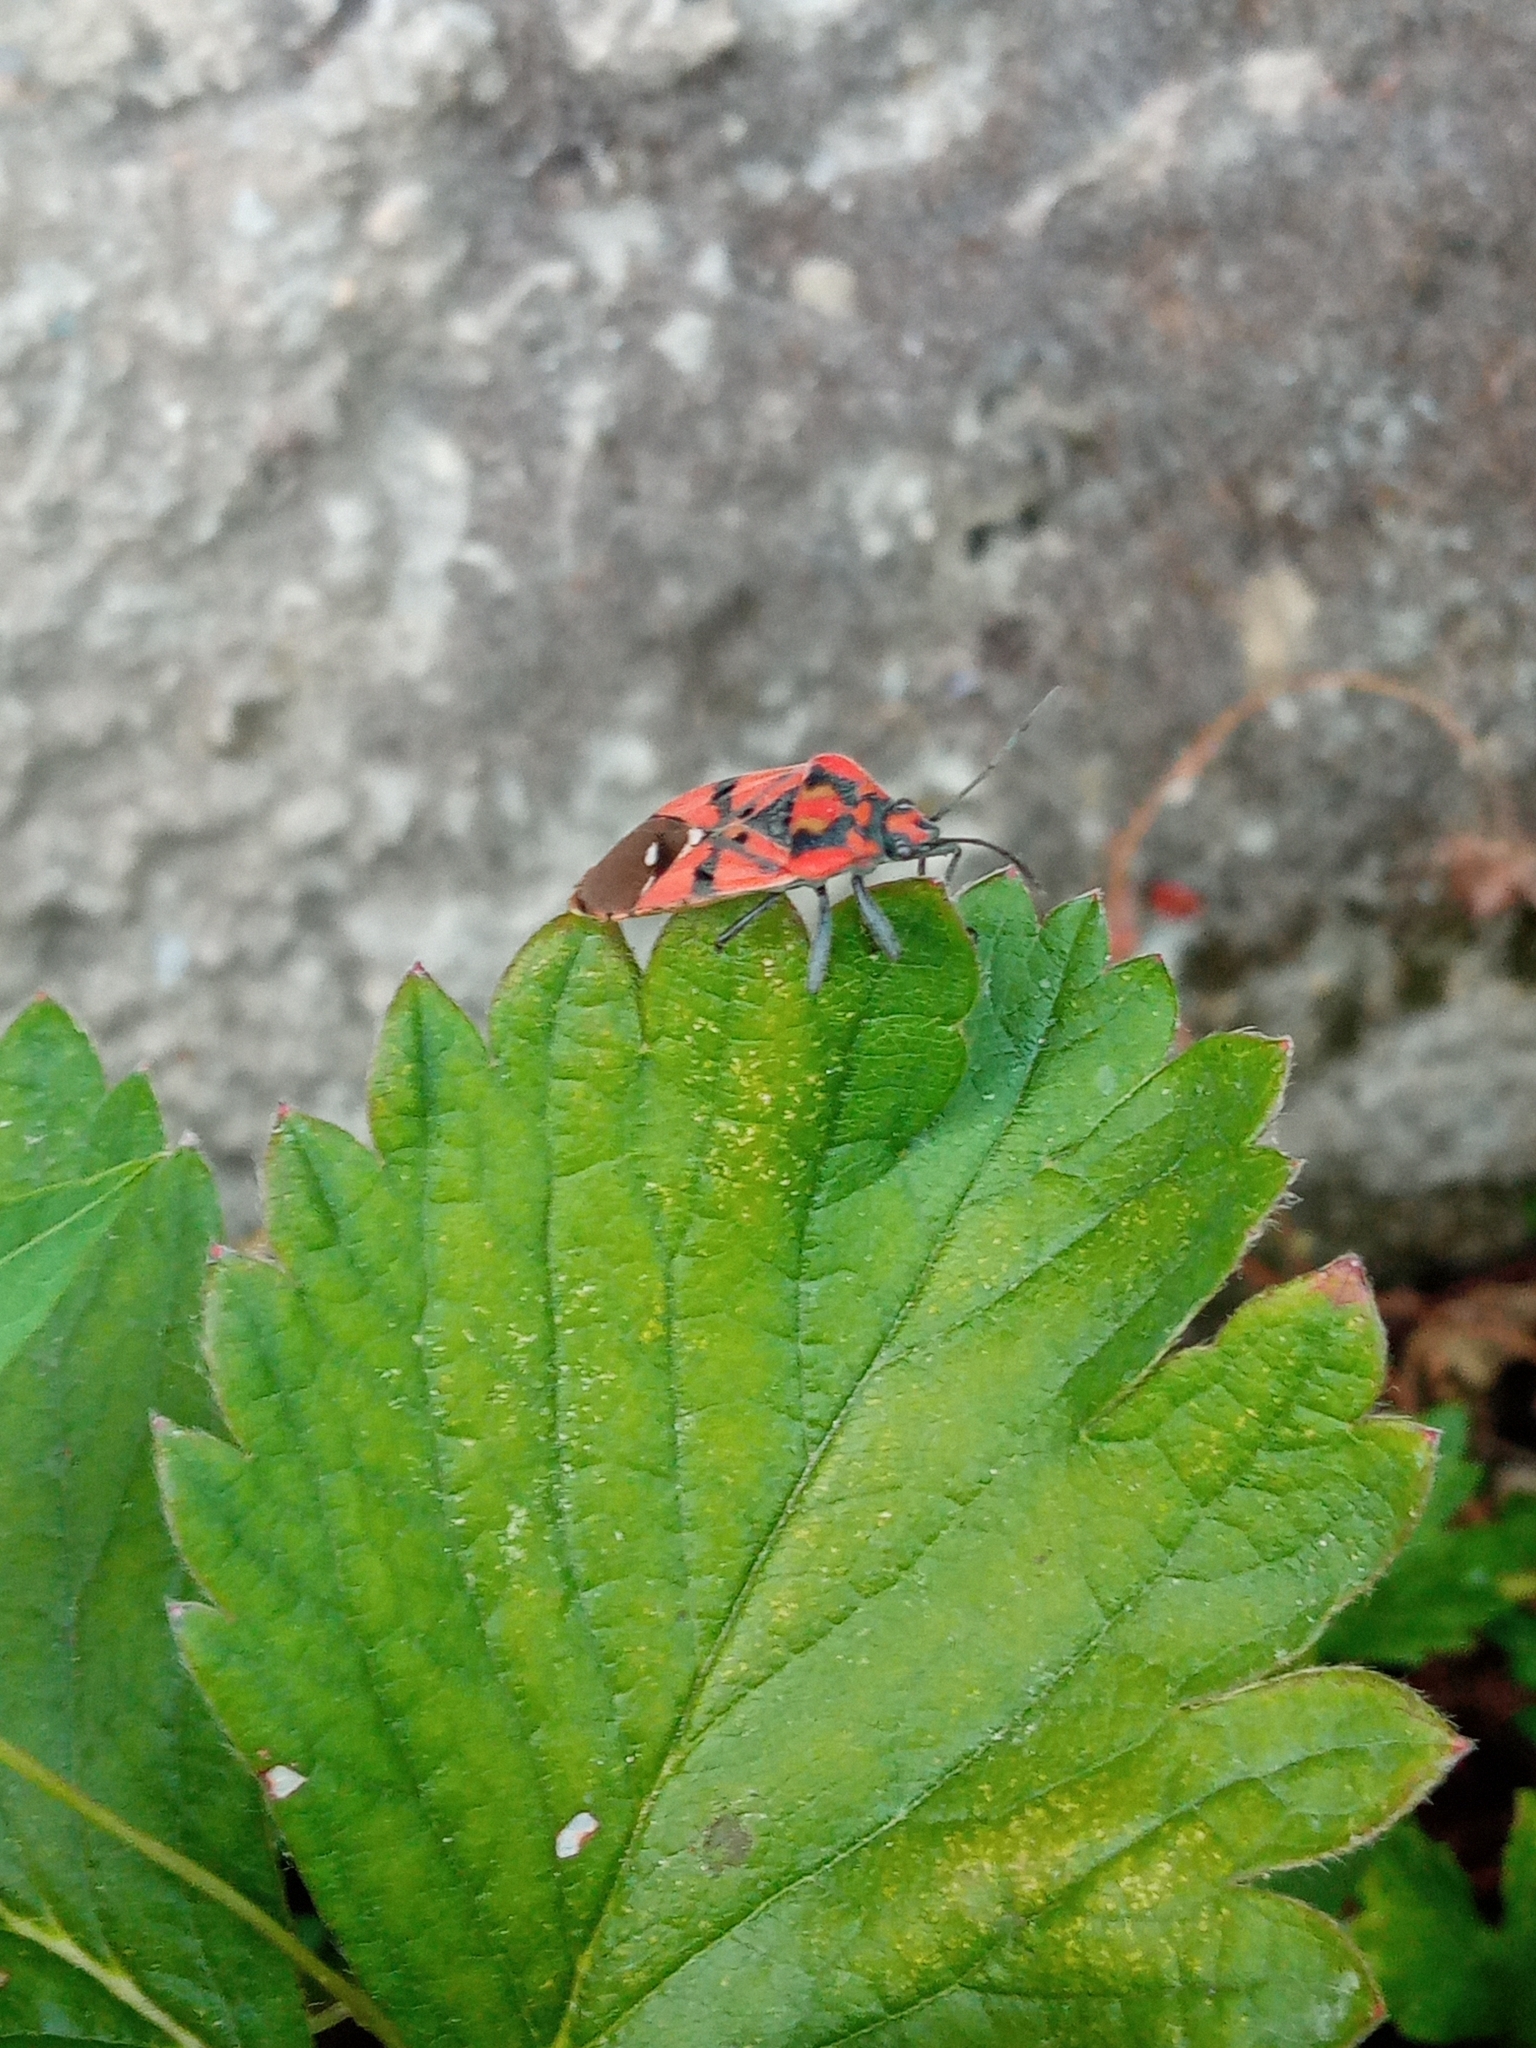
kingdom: Animalia
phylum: Arthropoda
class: Insecta
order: Hemiptera
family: Lygaeidae
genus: Spilostethus
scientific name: Spilostethus pandurus
